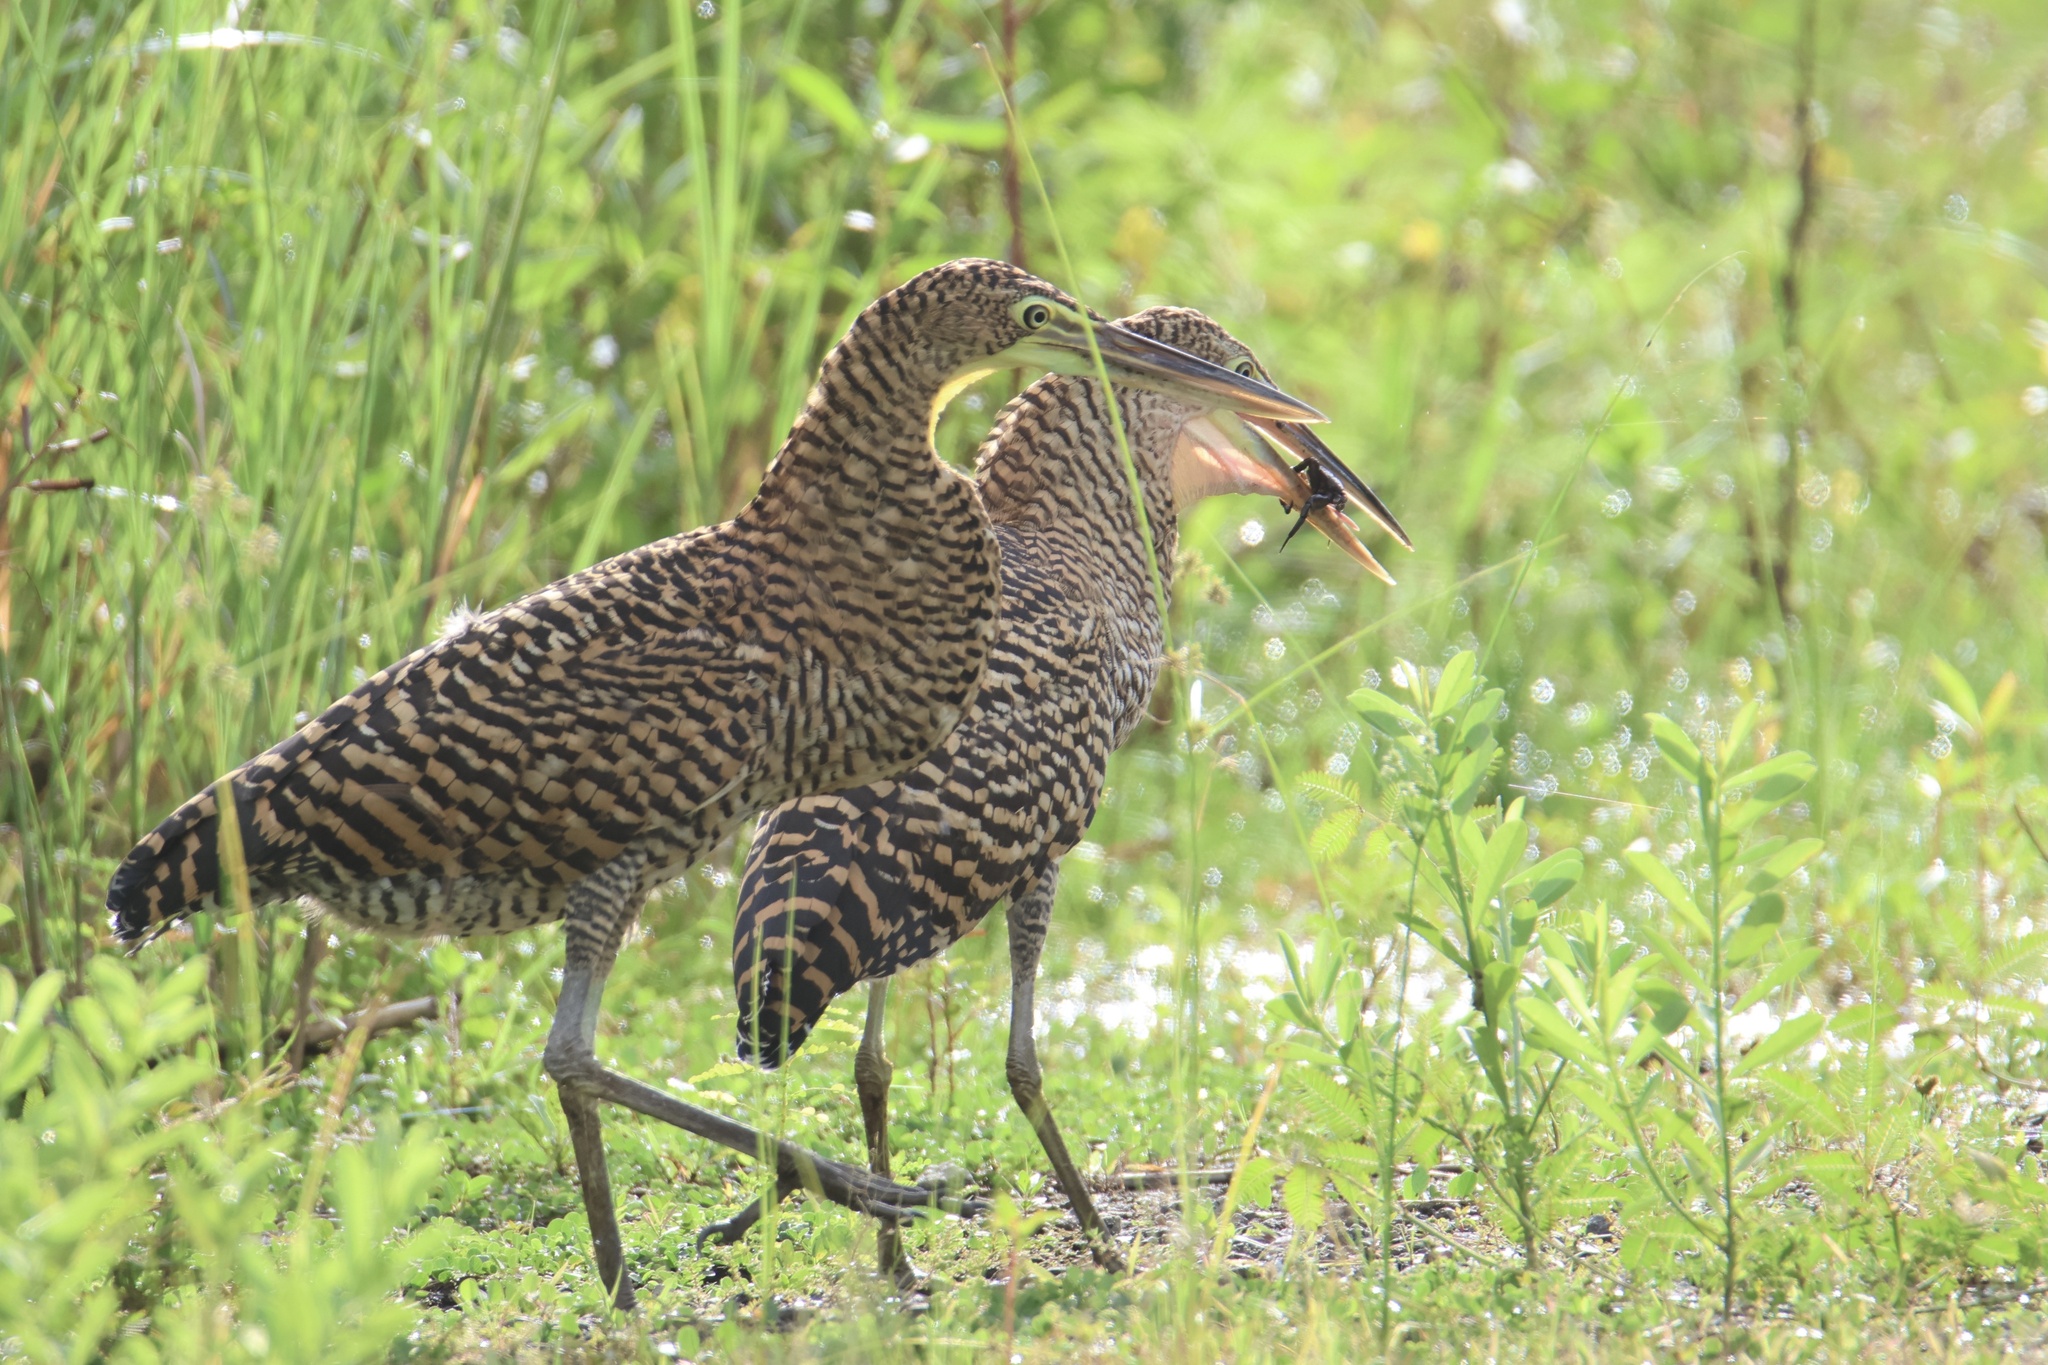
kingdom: Animalia
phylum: Chordata
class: Aves
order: Pelecaniformes
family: Ardeidae
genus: Tigrisoma
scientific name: Tigrisoma mexicanum
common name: Bare-throated tiger-heron
